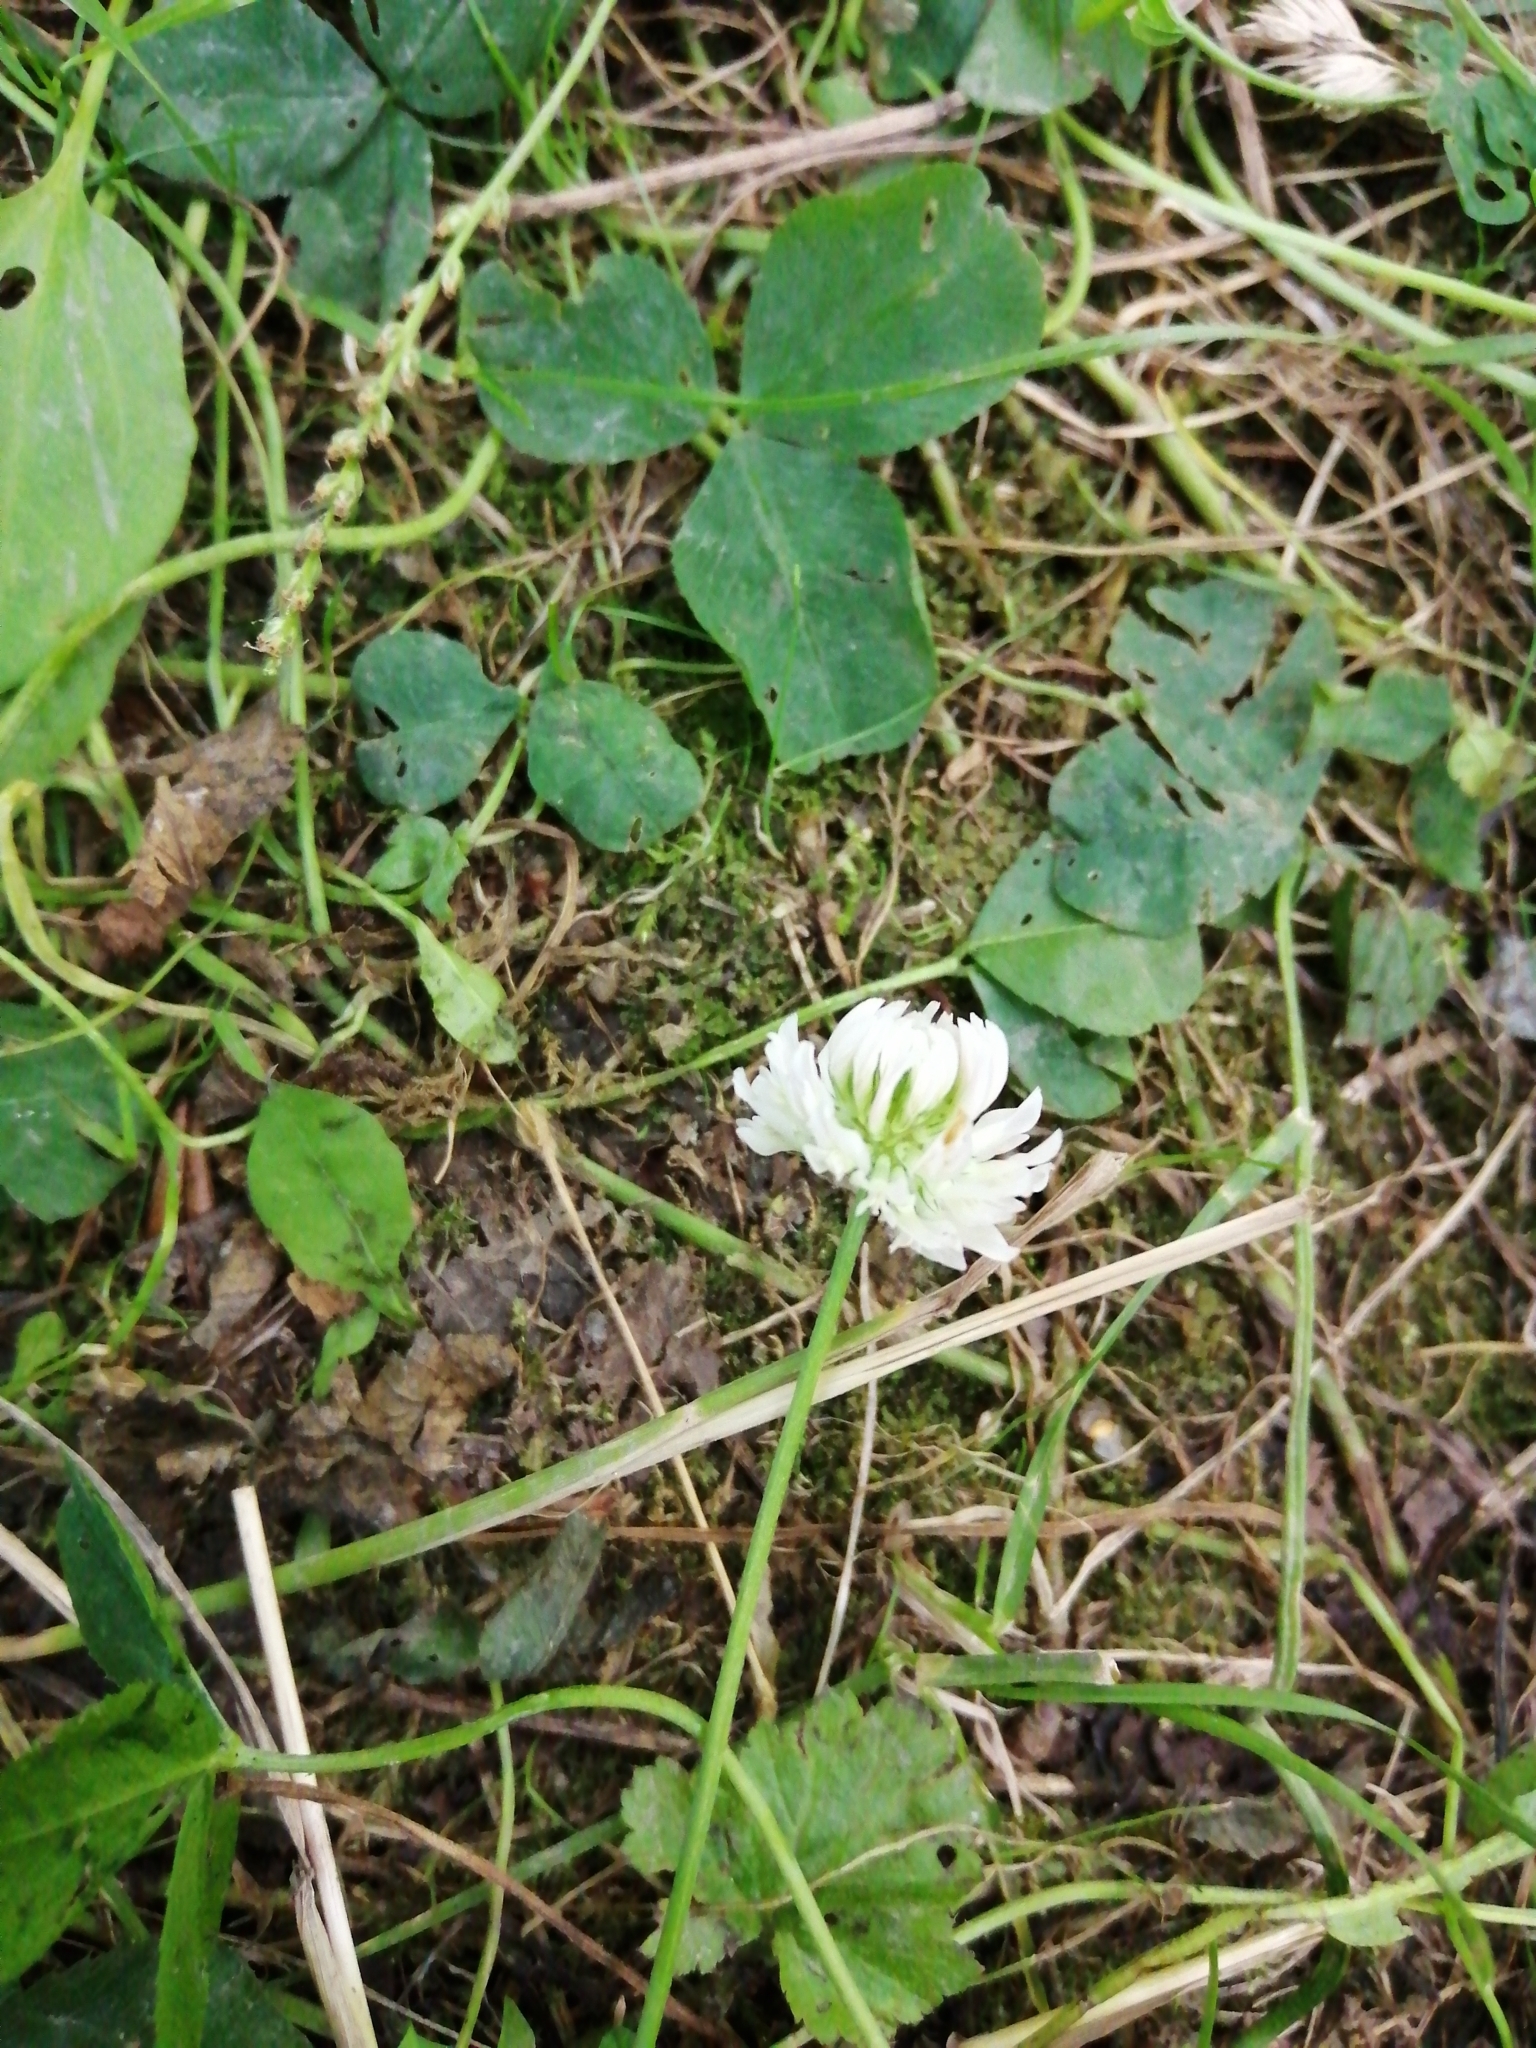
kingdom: Plantae
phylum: Tracheophyta
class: Magnoliopsida
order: Fabales
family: Fabaceae
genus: Trifolium
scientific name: Trifolium repens
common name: White clover
